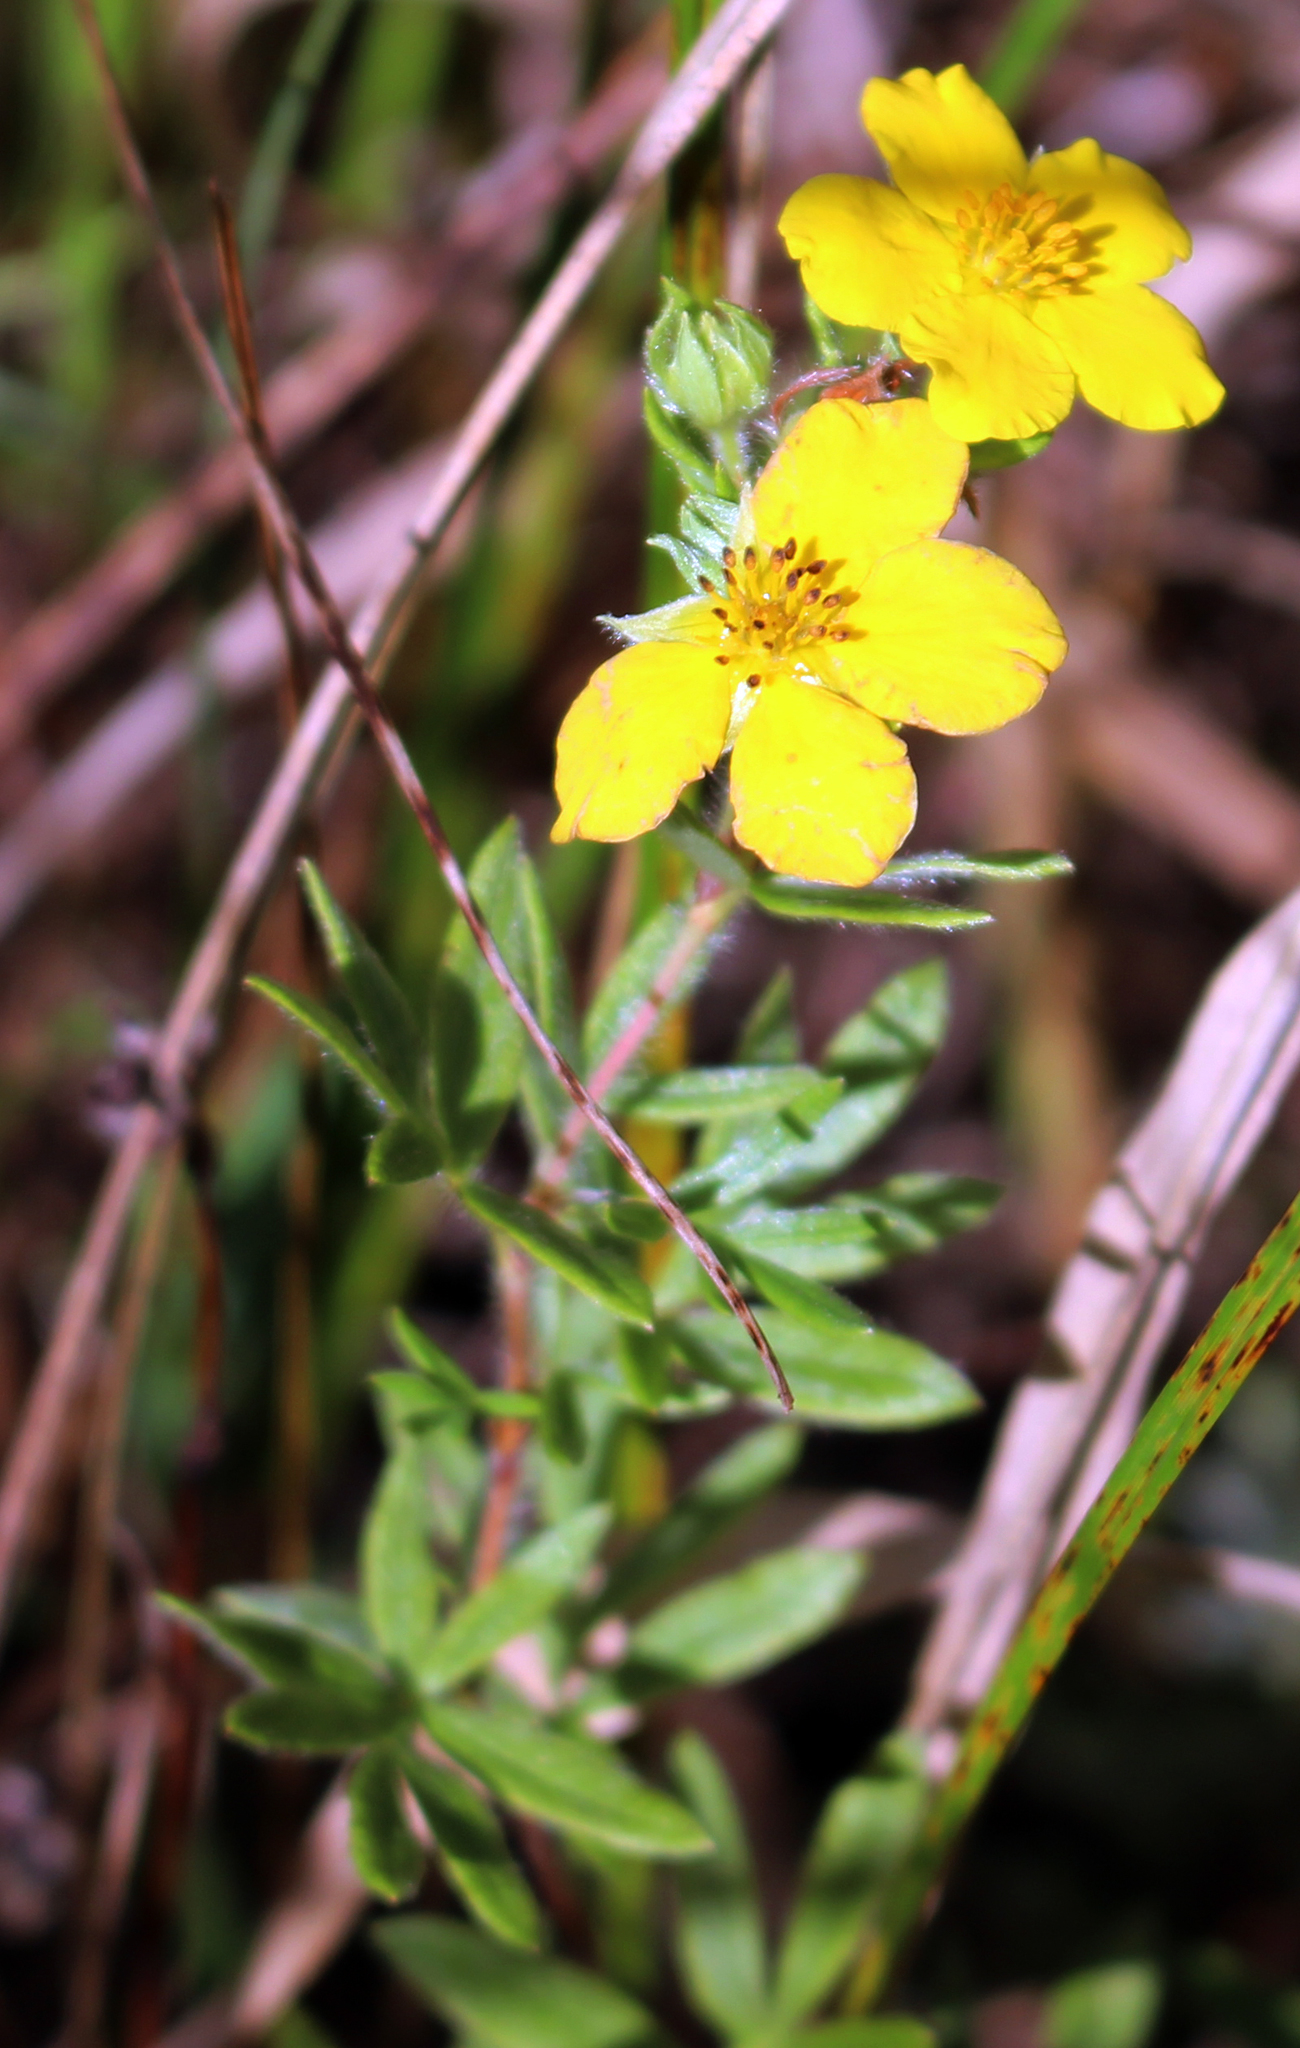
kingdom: Plantae
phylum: Tracheophyta
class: Magnoliopsida
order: Rosales
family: Rosaceae
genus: Dasiphora
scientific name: Dasiphora fruticosa
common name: Shrubby cinquefoil
